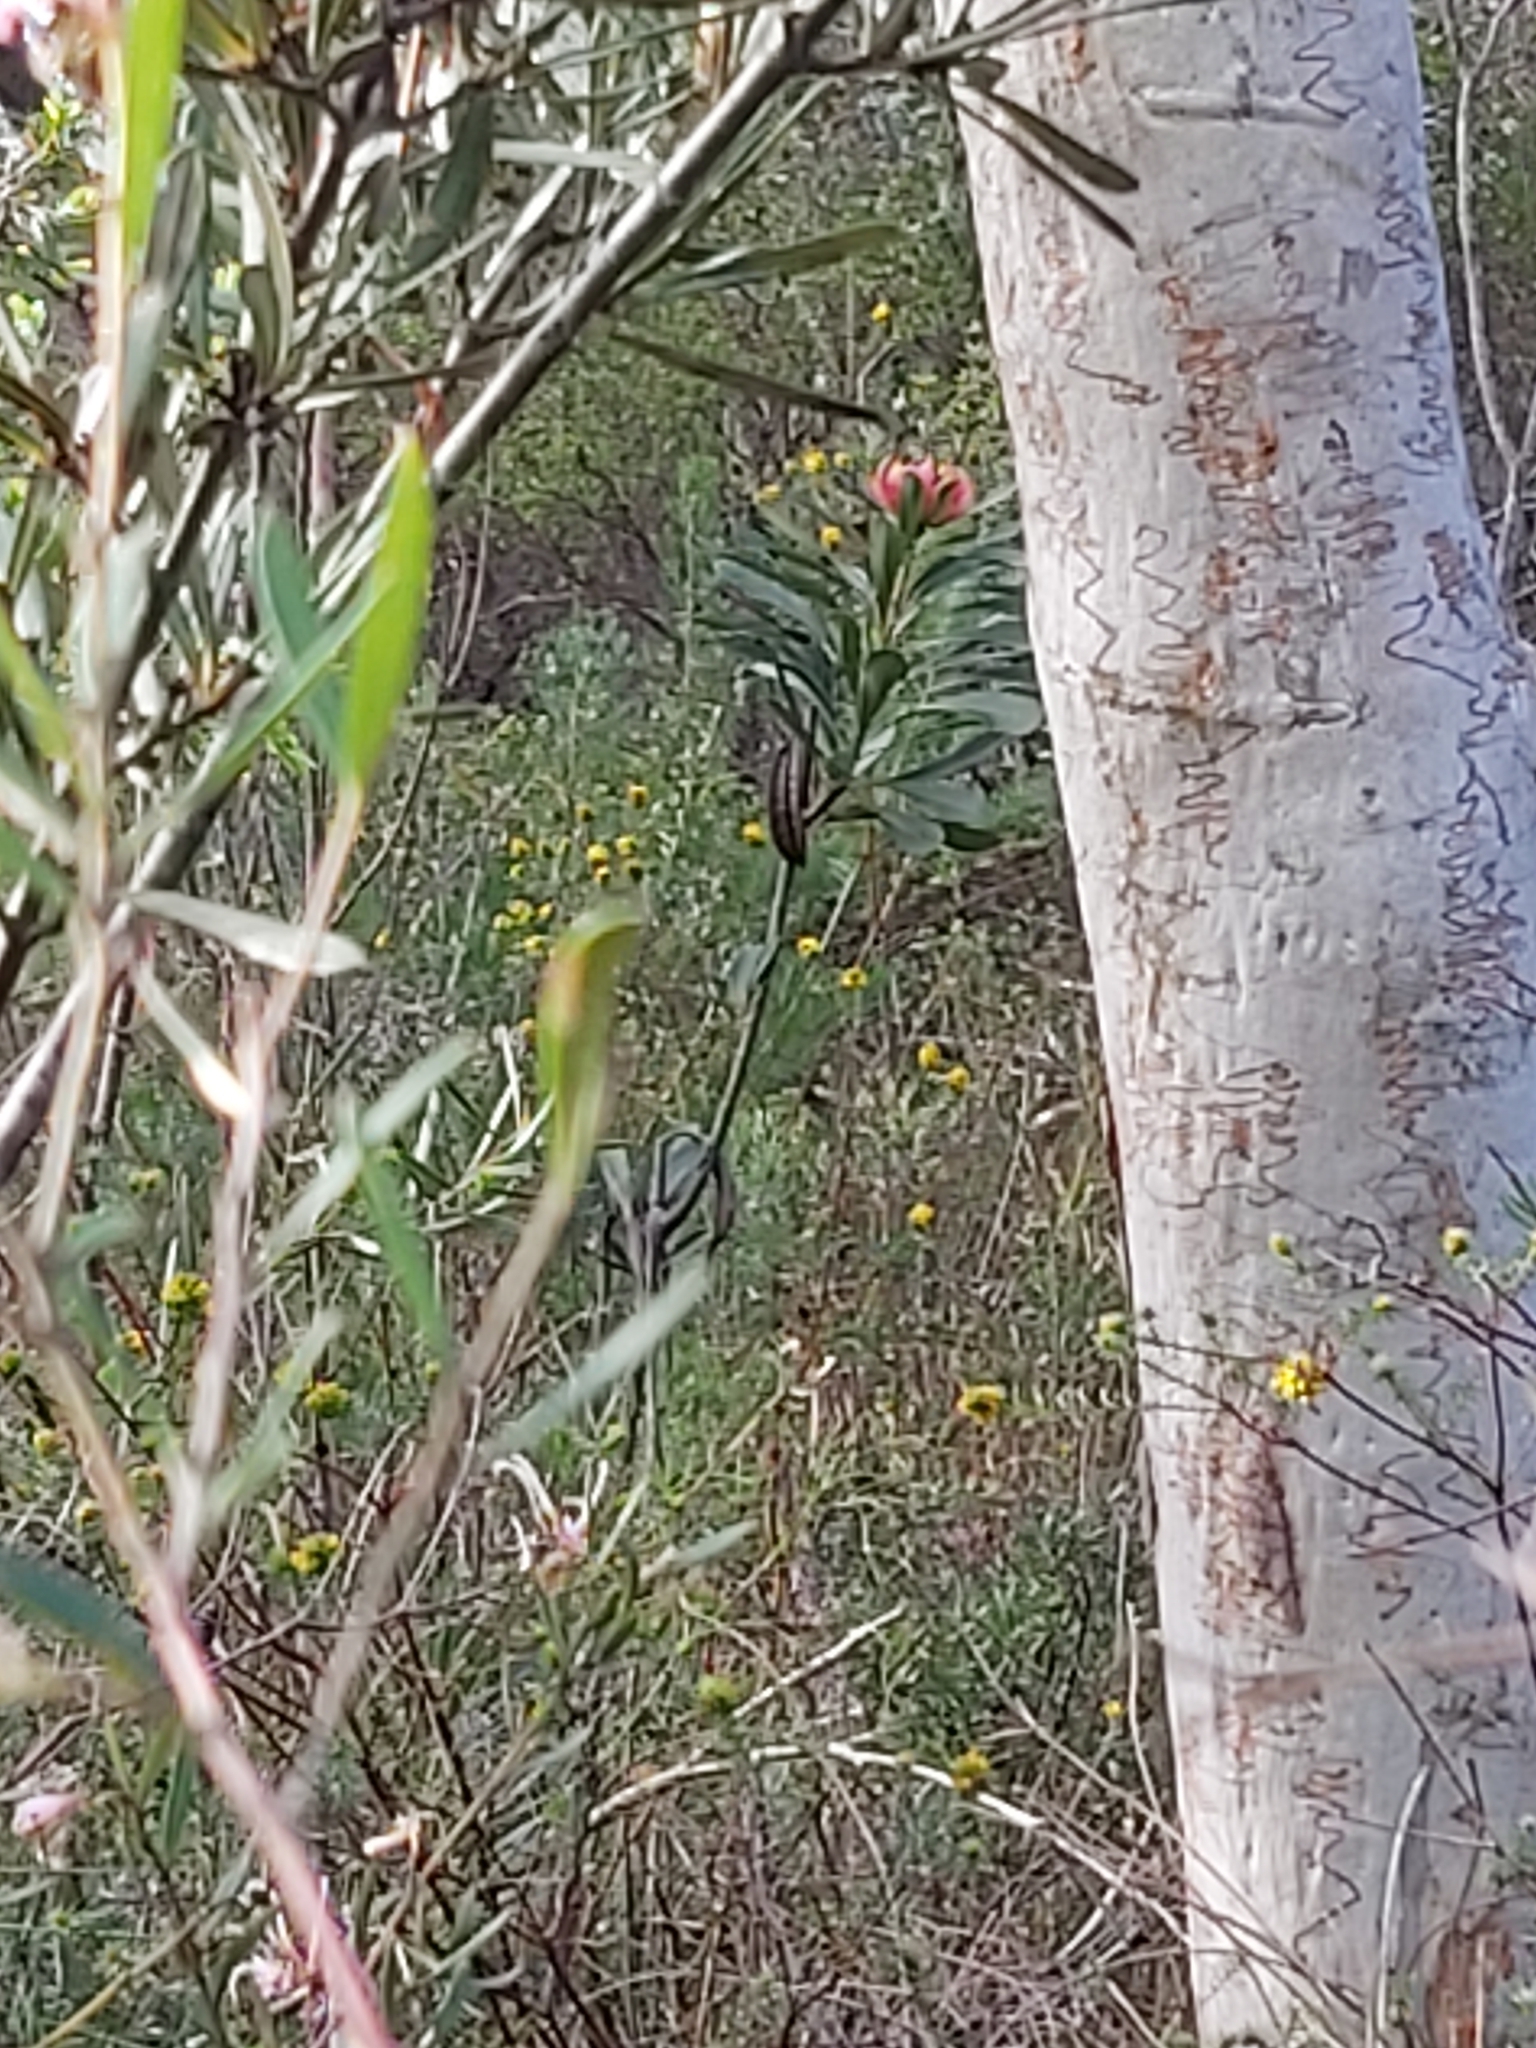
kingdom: Plantae
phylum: Tracheophyta
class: Magnoliopsida
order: Proteales
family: Proteaceae
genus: Telopea
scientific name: Telopea speciosissima
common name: New south wales waratah
